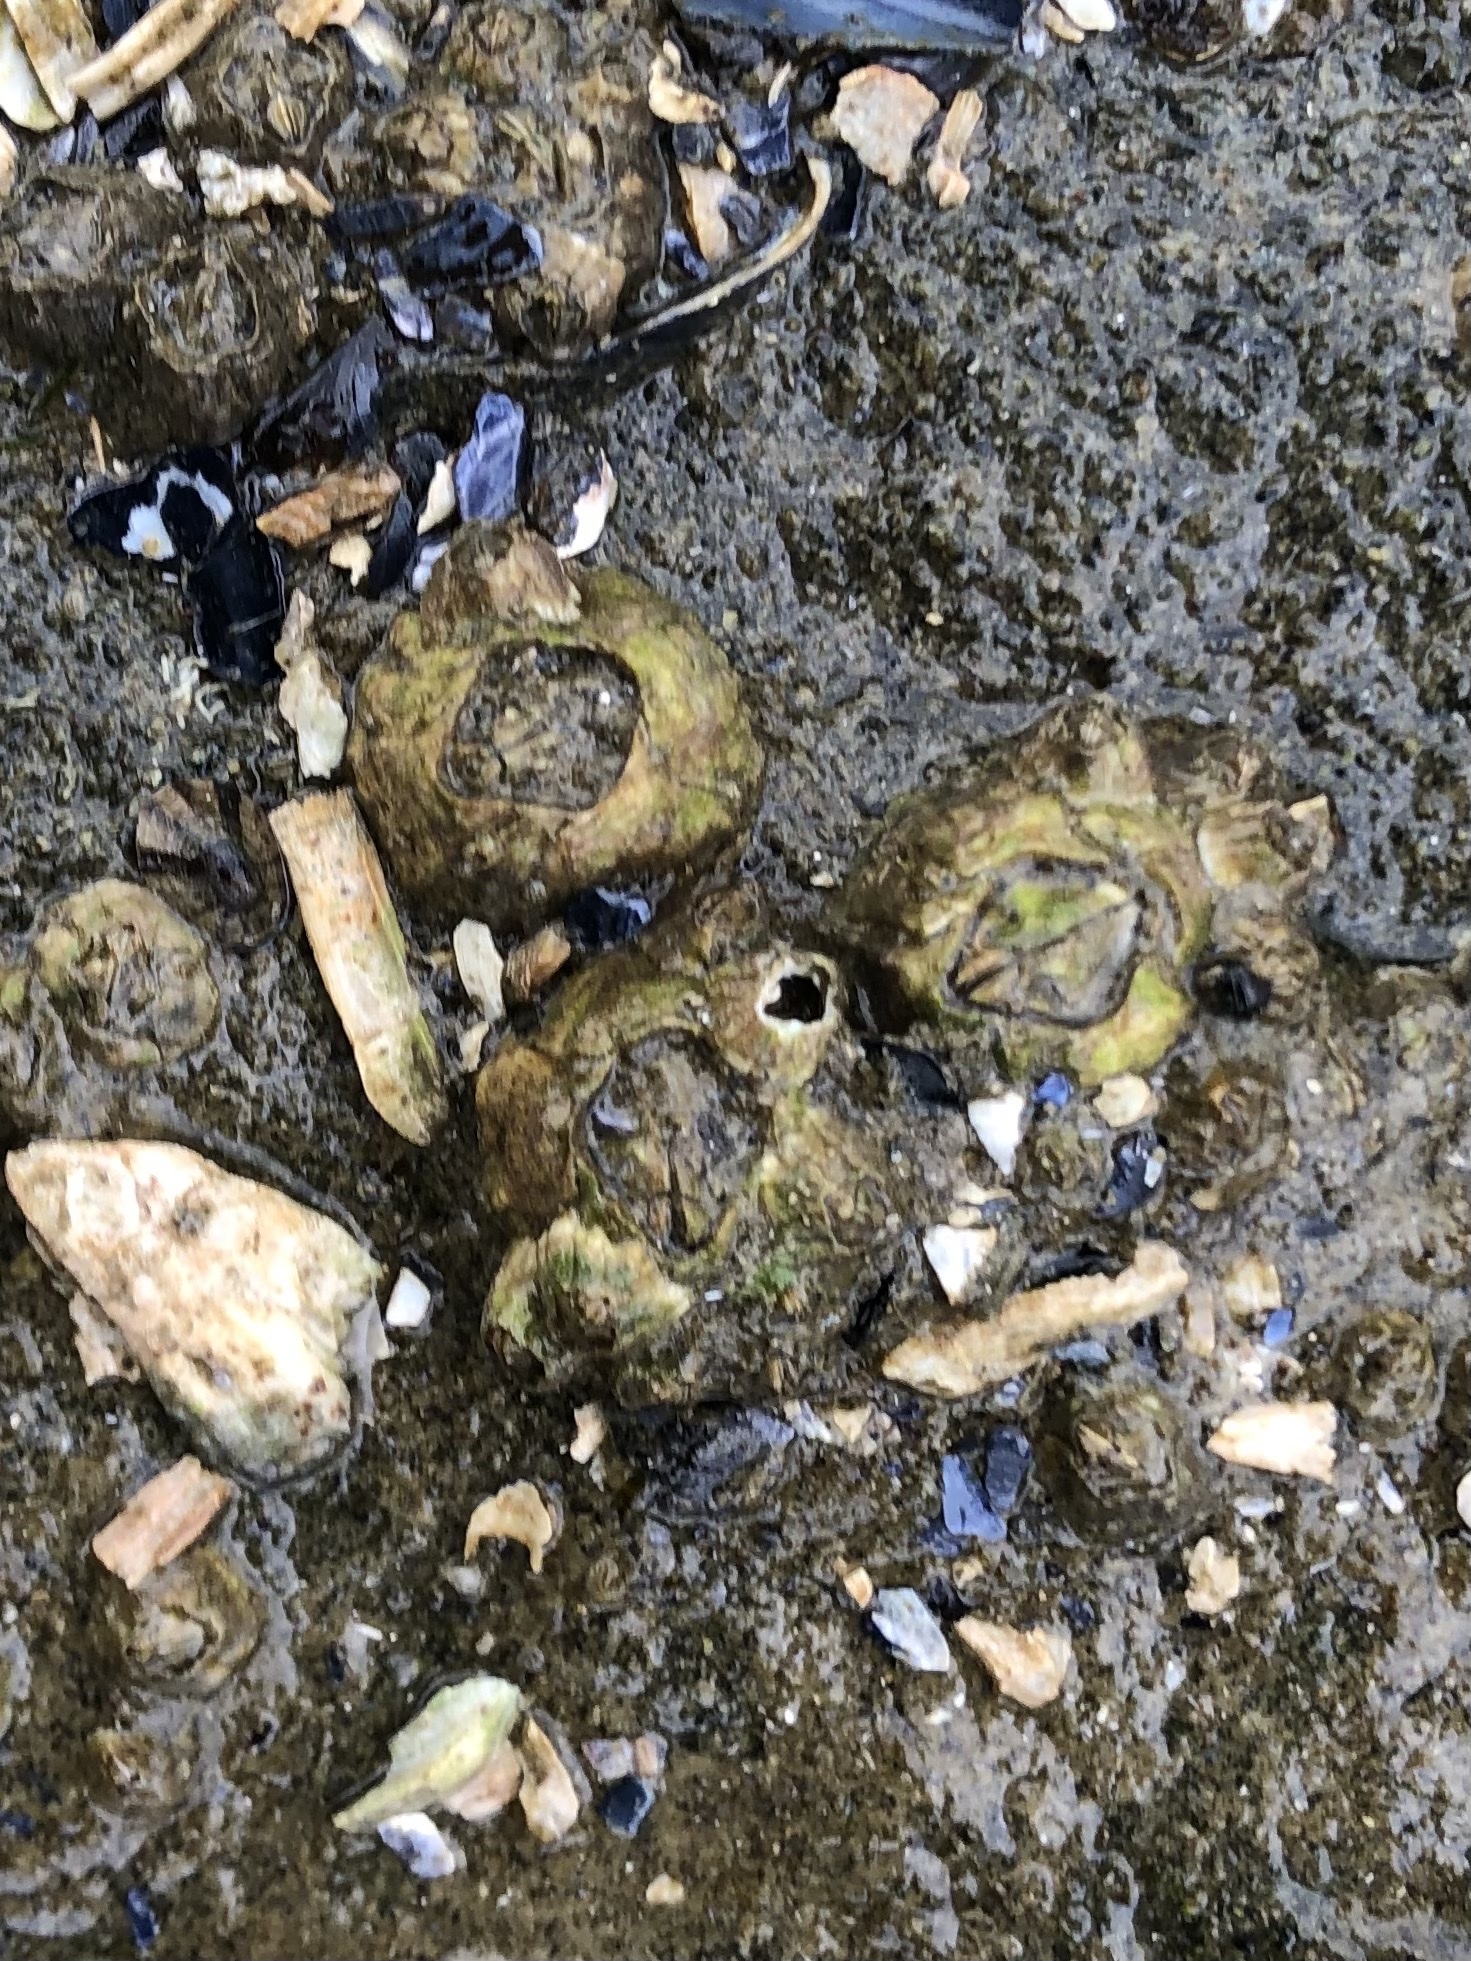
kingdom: Animalia
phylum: Arthropoda
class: Maxillopoda
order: Sessilia
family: Balanidae
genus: Balanus
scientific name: Balanus glandula
